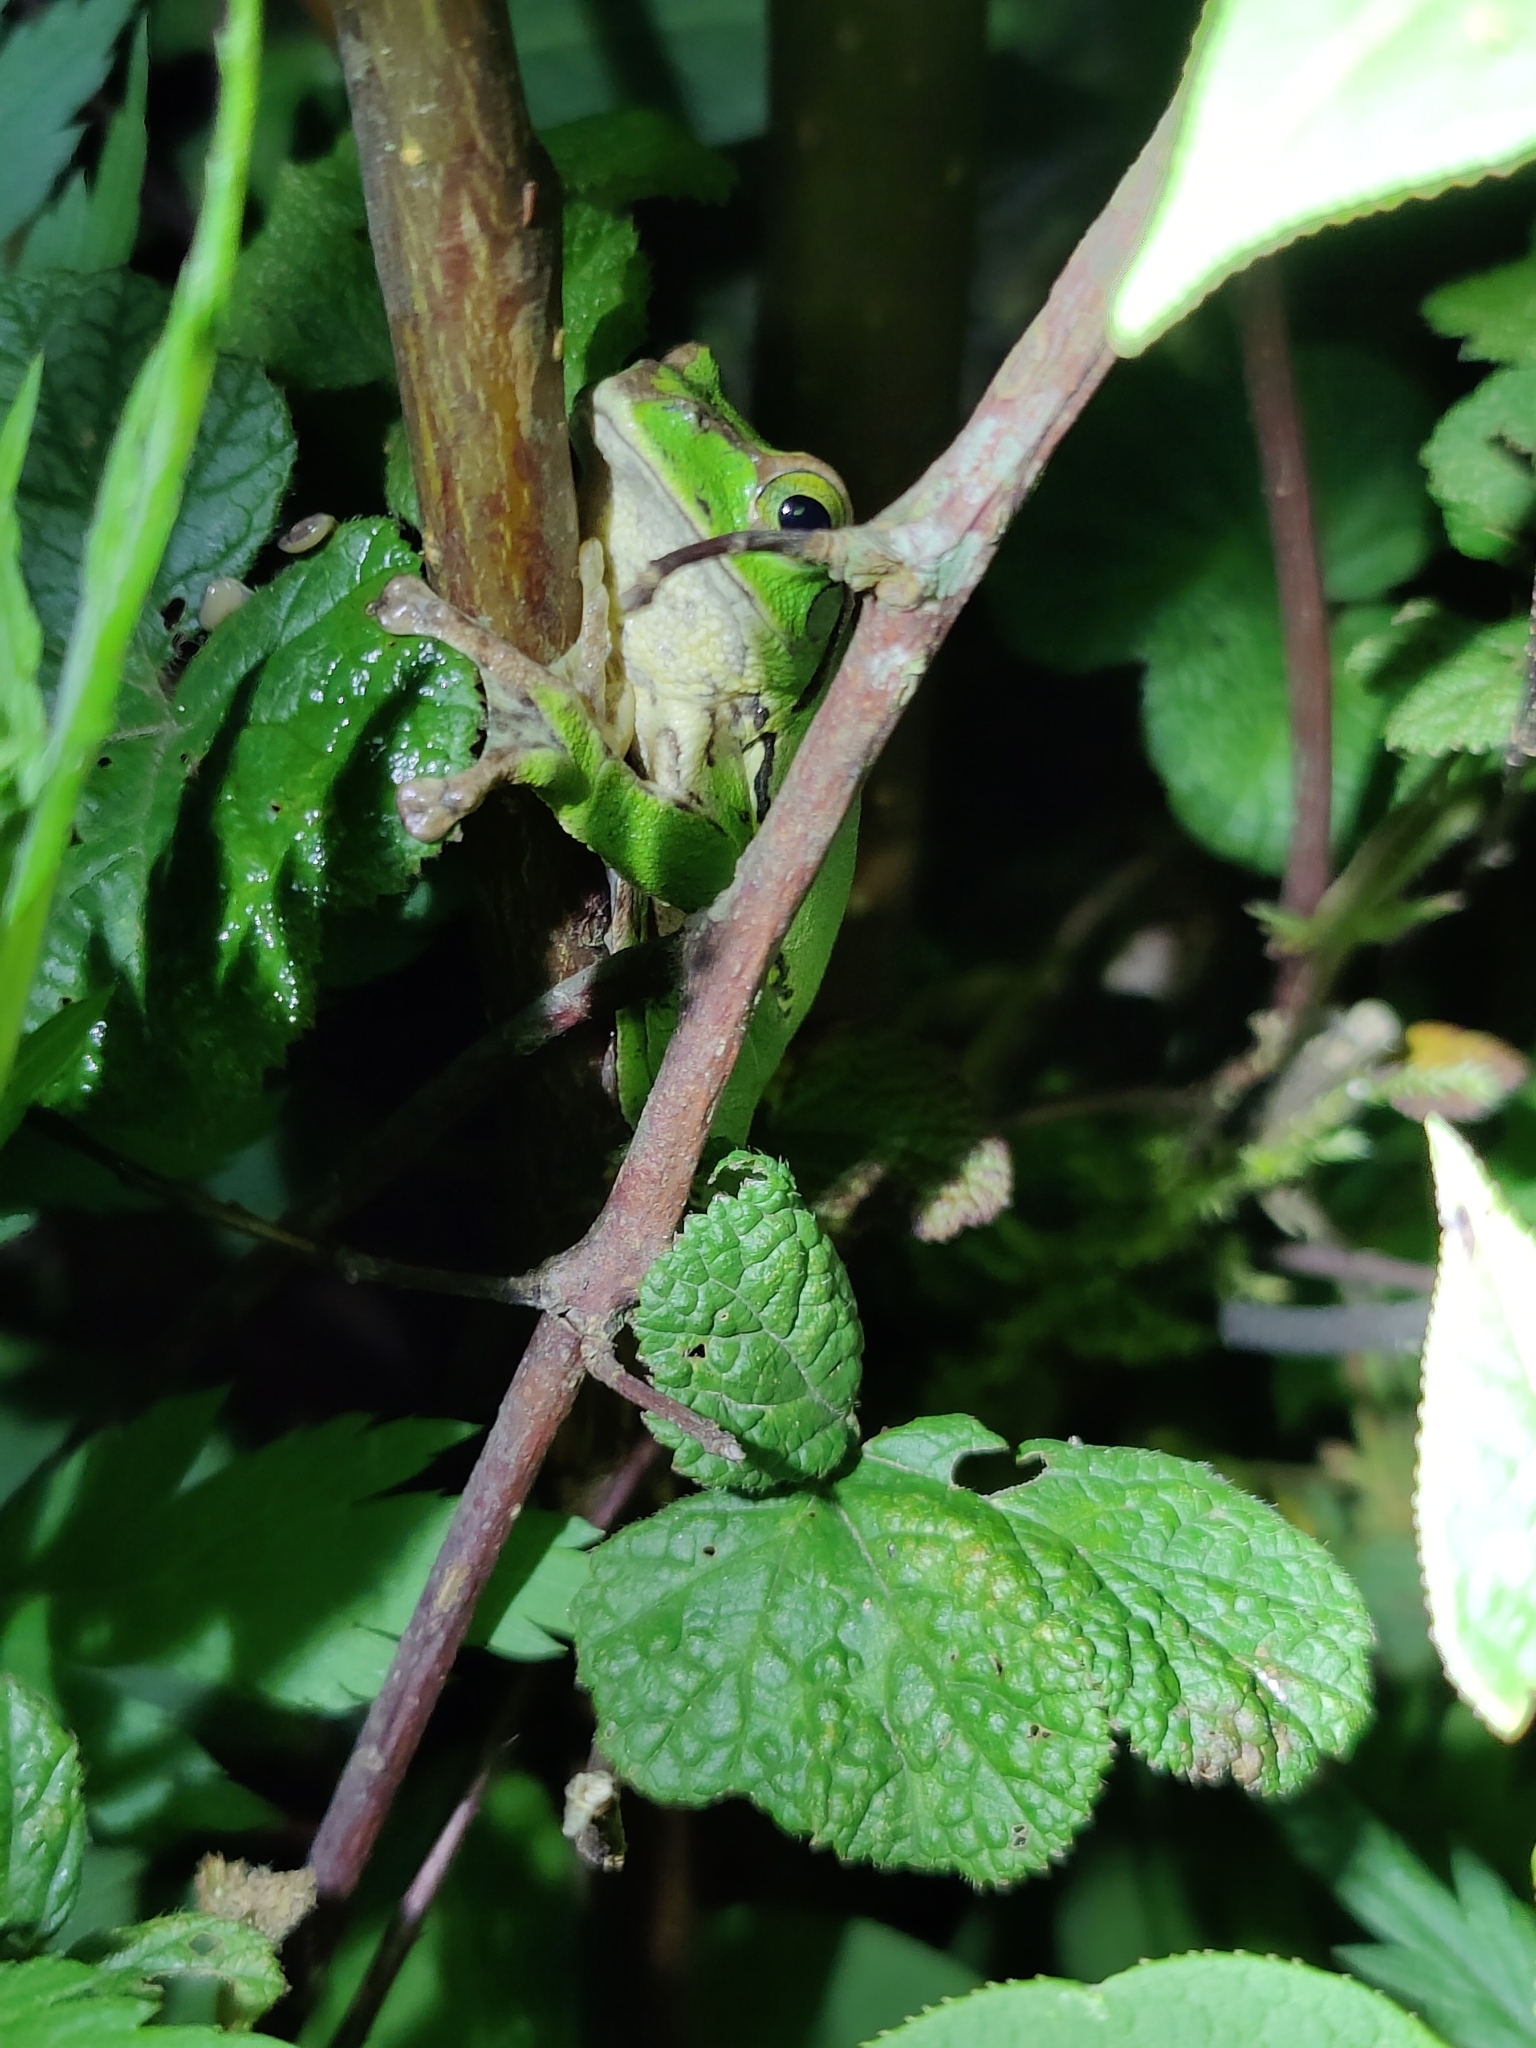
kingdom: Animalia
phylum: Chordata
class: Amphibia
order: Anura
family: Rhacophoridae
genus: Zhangixalus
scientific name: Zhangixalus burmanus
